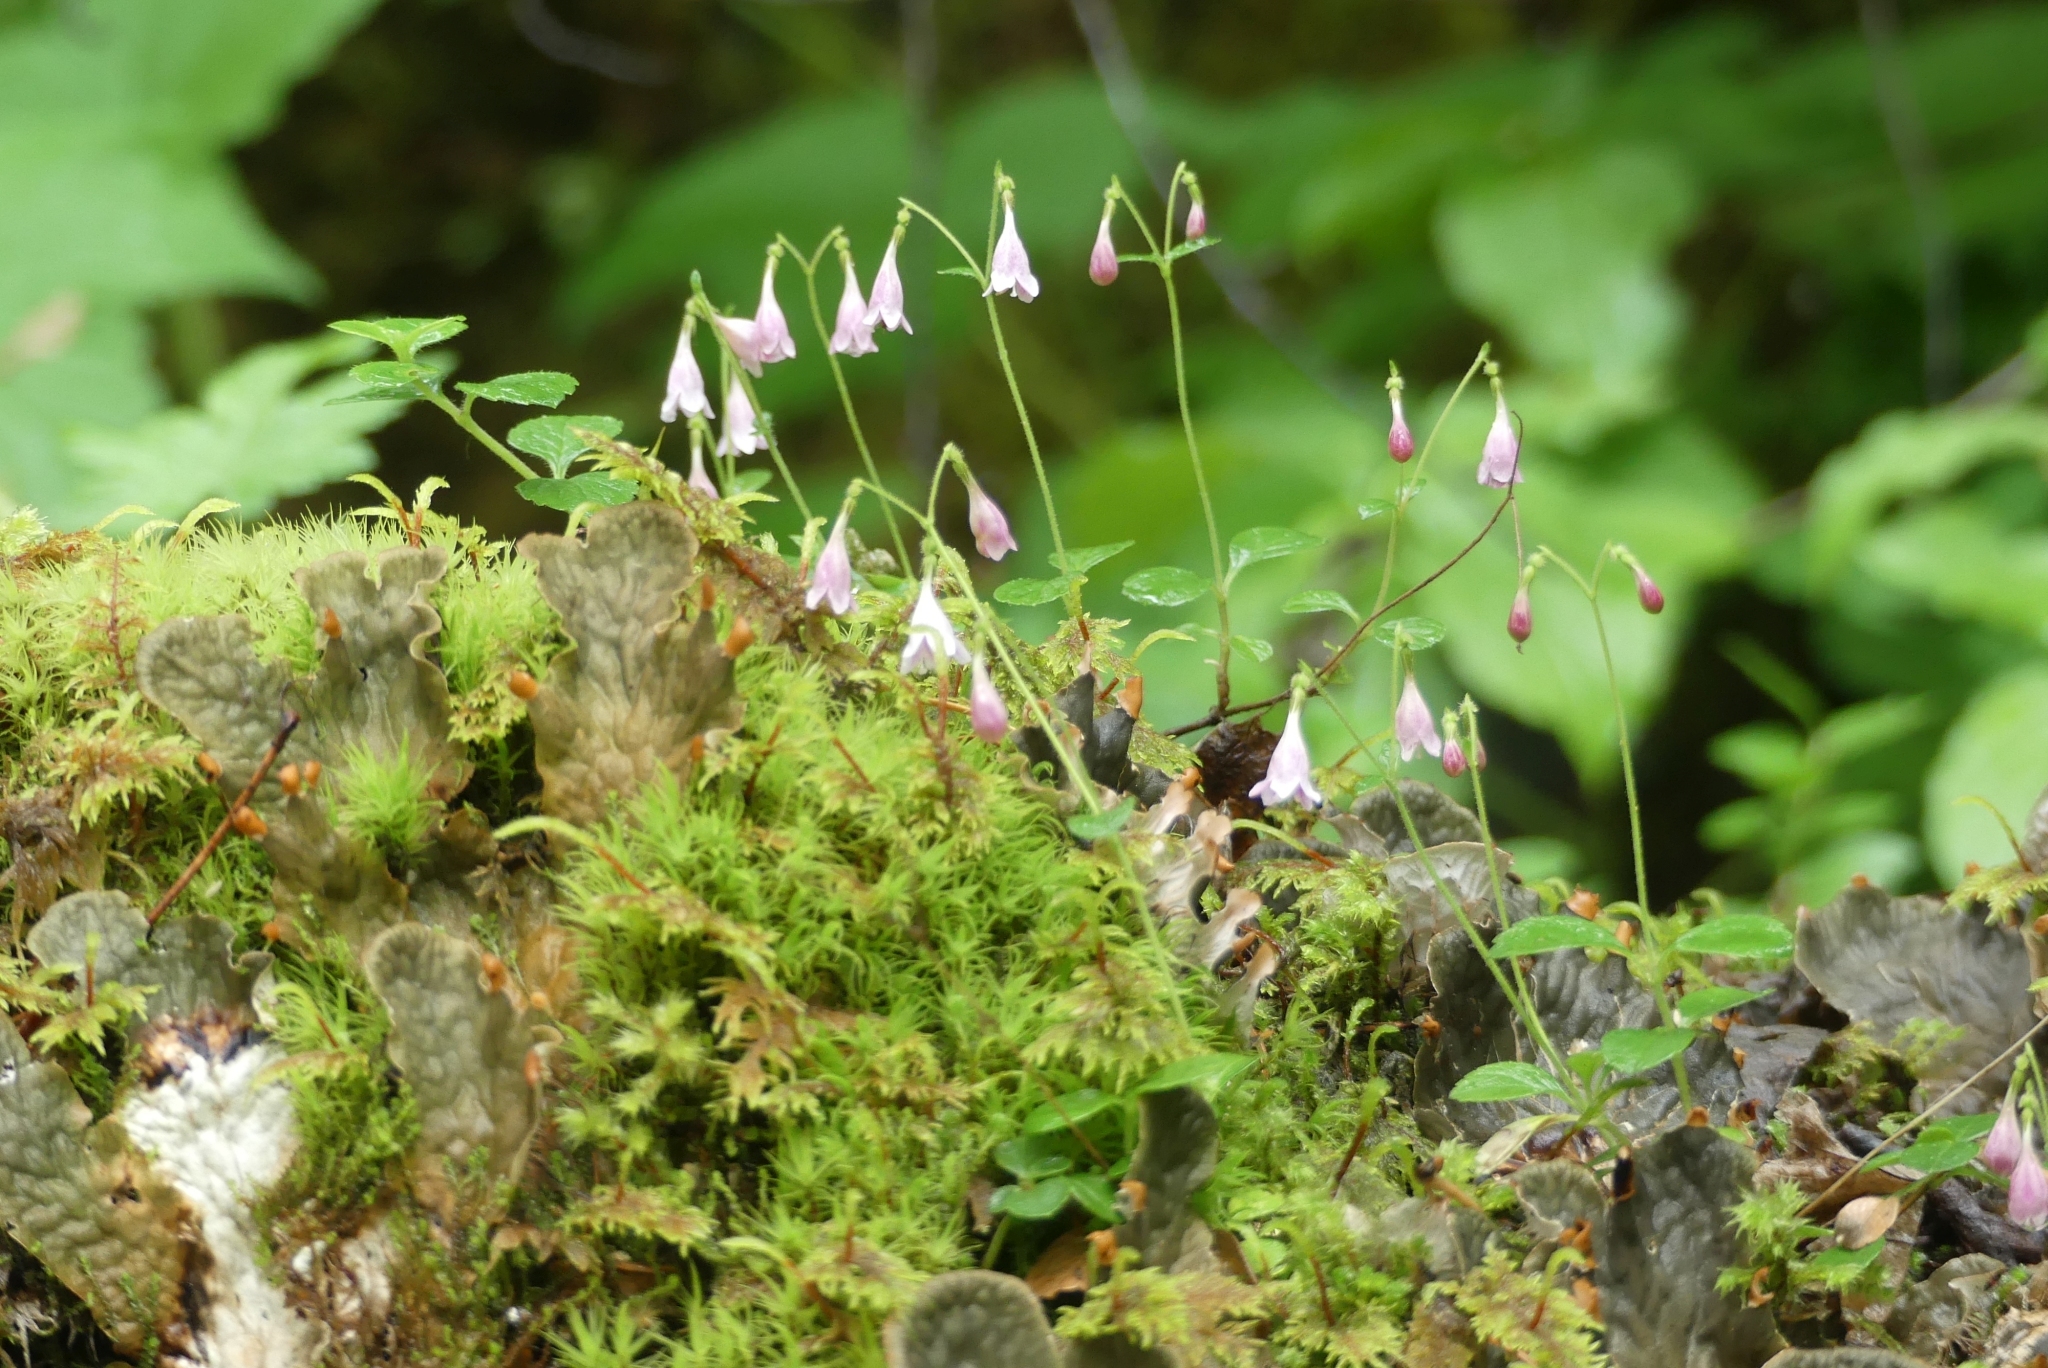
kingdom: Plantae
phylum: Tracheophyta
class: Magnoliopsida
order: Dipsacales
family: Caprifoliaceae
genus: Linnaea
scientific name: Linnaea borealis
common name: Twinflower
